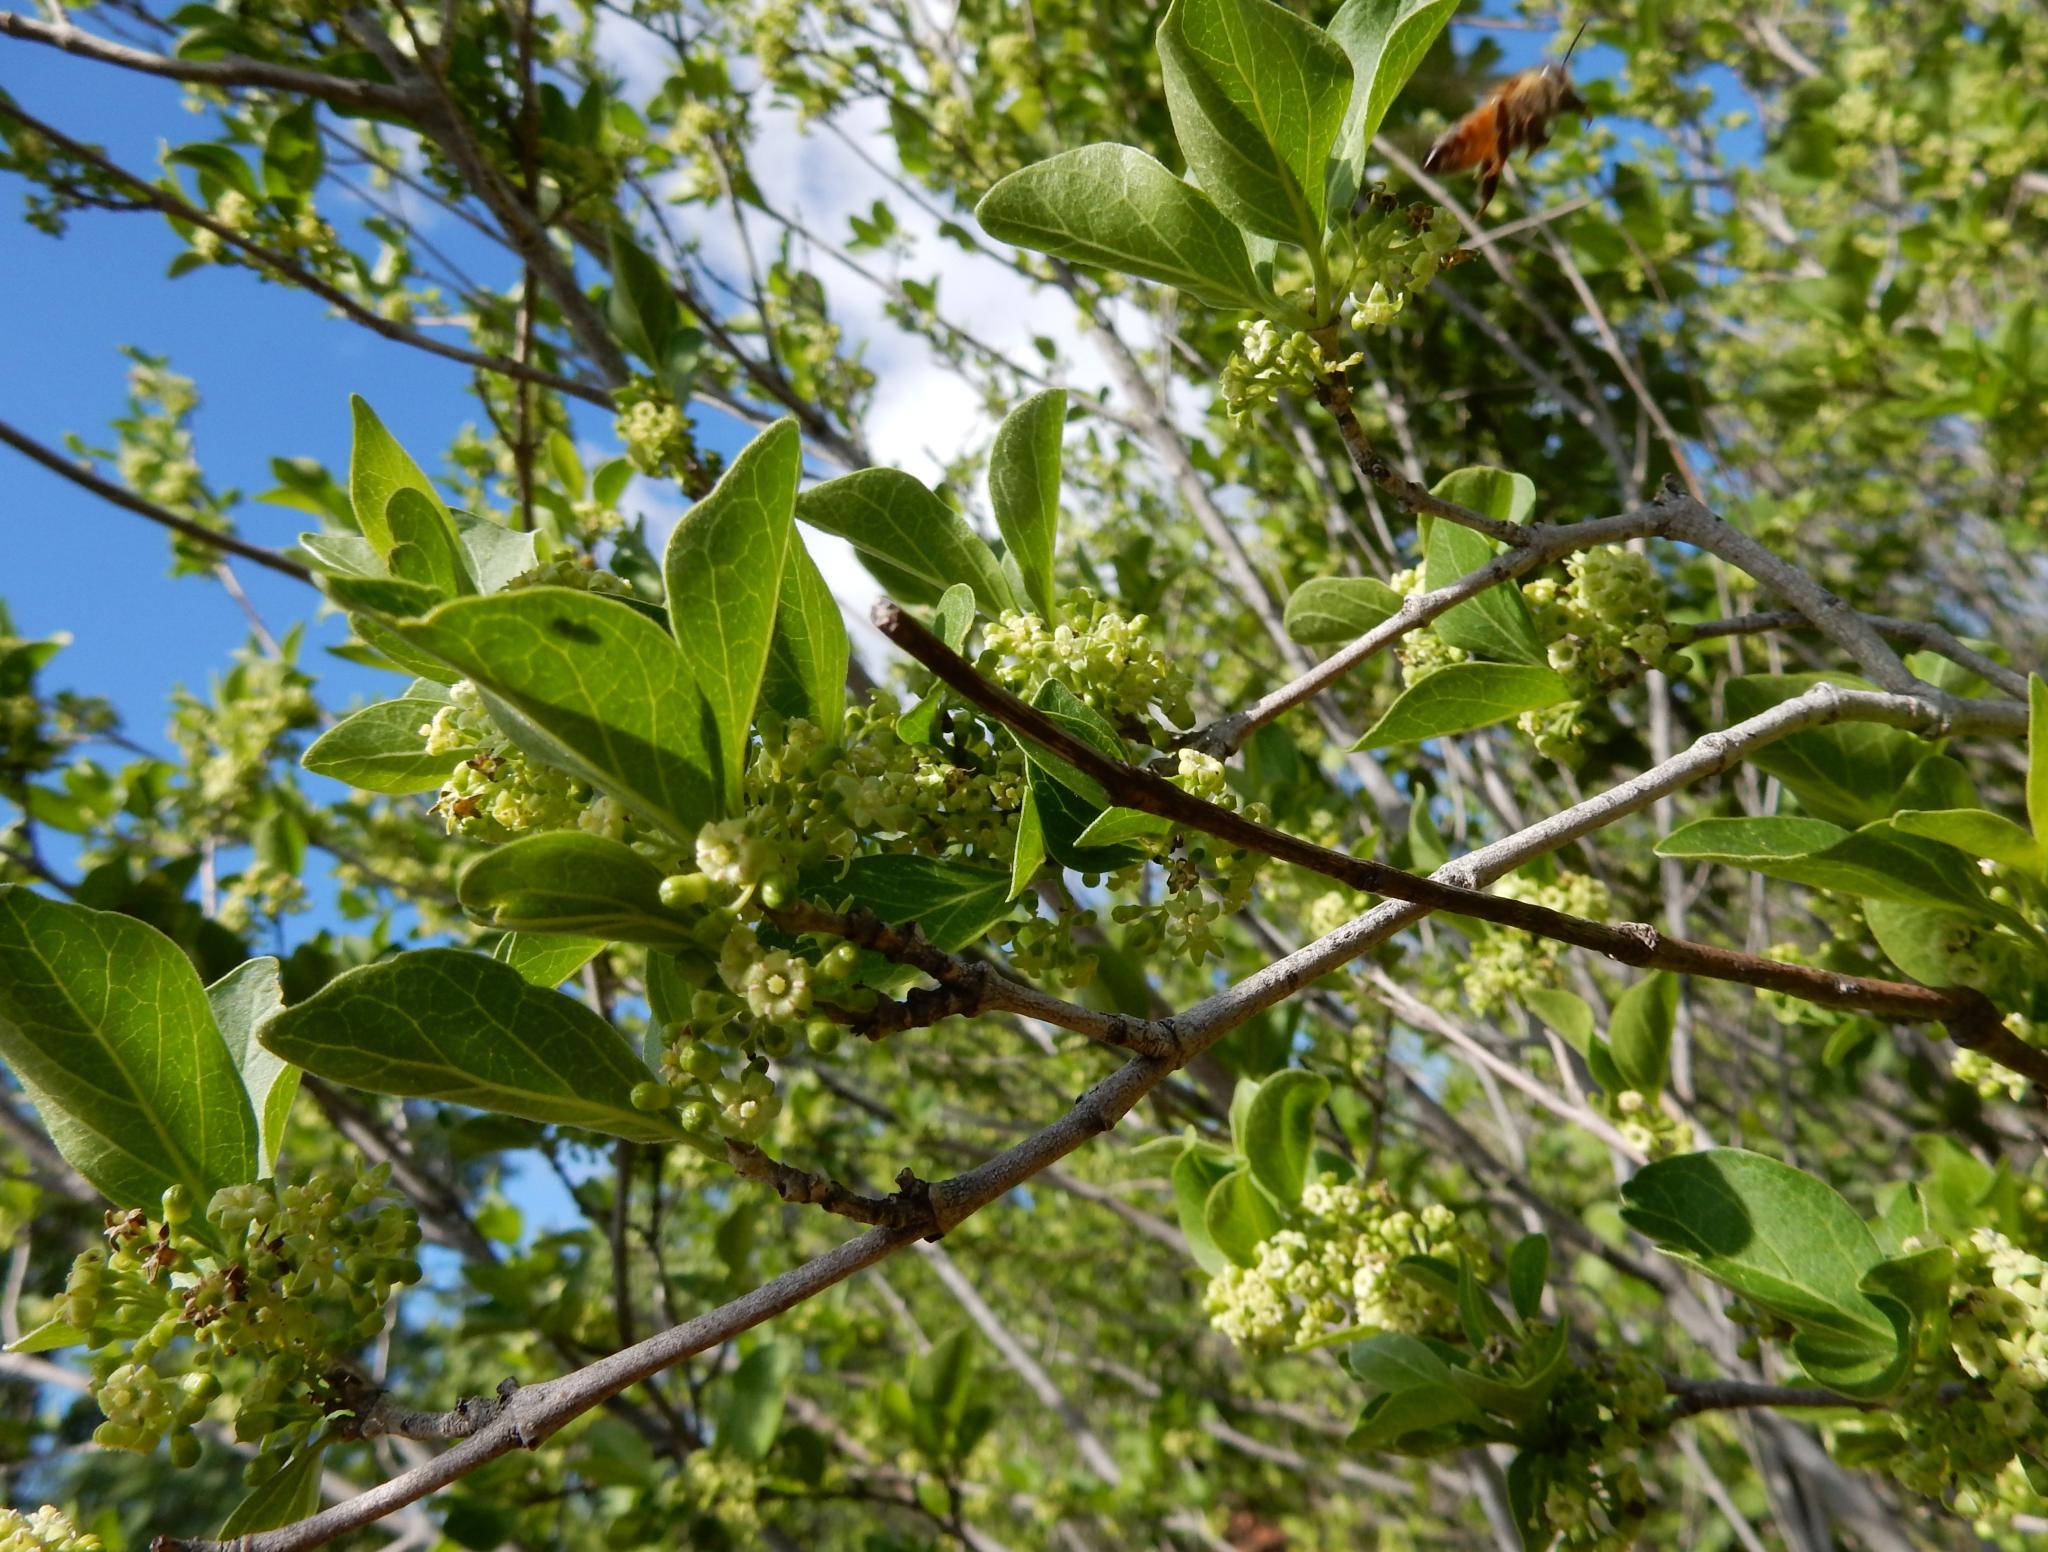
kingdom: Plantae
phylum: Tracheophyta
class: Magnoliopsida
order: Gentianales
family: Rubiaceae
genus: Afrocanthium
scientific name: Afrocanthium mundianum
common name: Rock-alder
